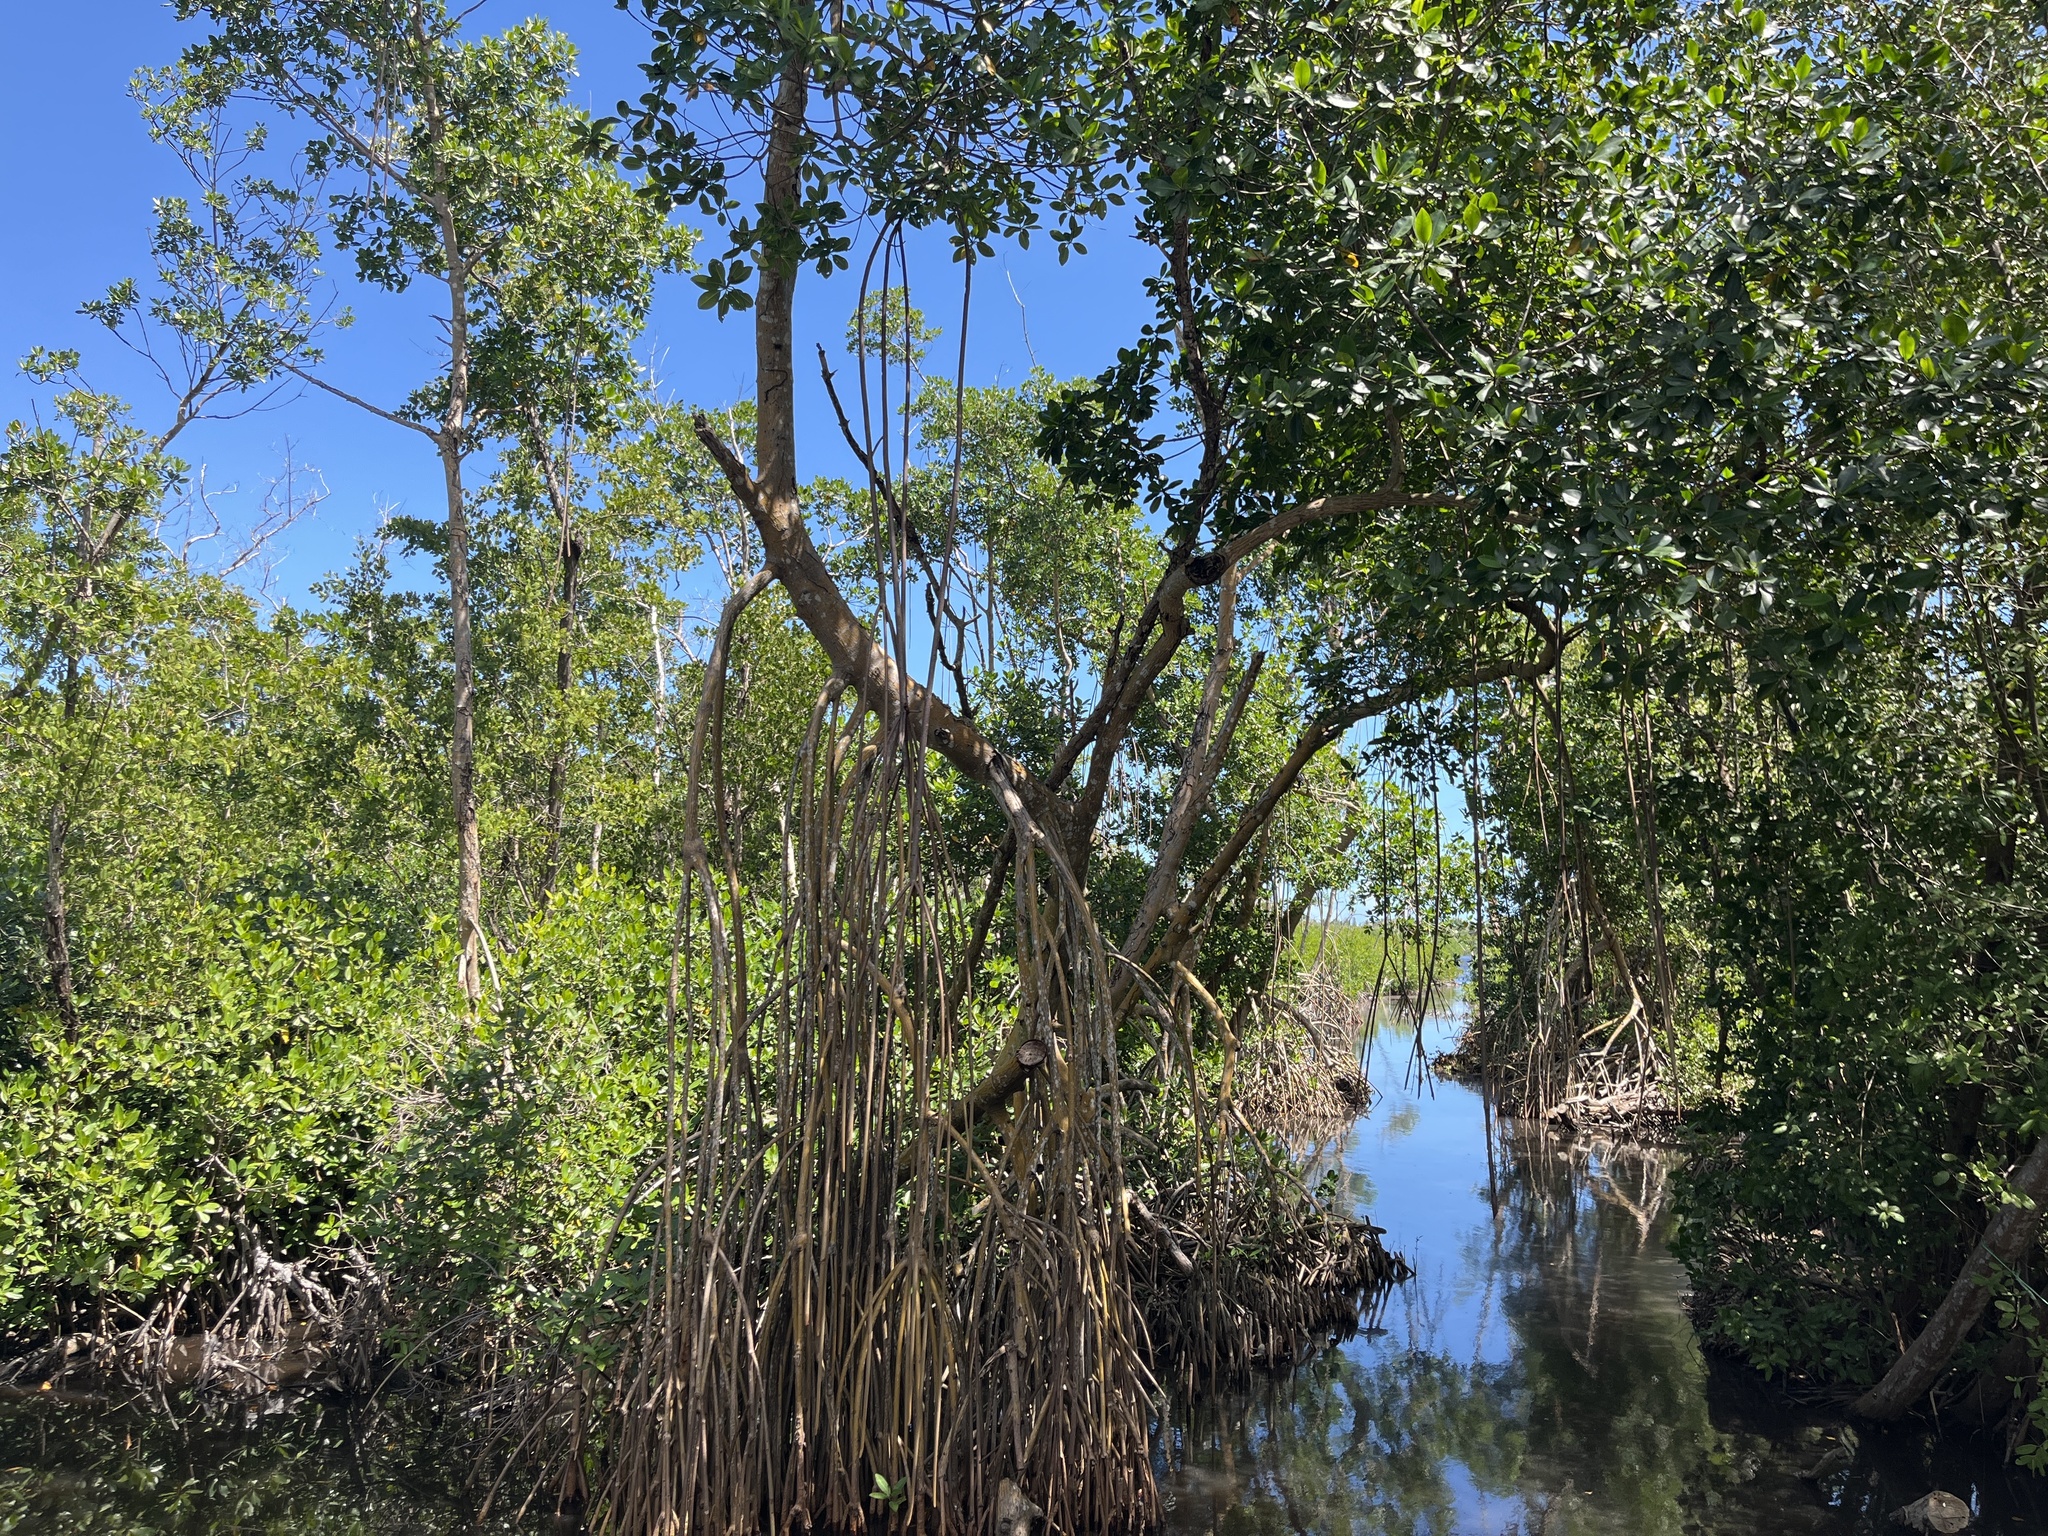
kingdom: Plantae
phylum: Tracheophyta
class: Magnoliopsida
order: Malpighiales
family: Rhizophoraceae
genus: Rhizophora
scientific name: Rhizophora mangle
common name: Red mangrove
